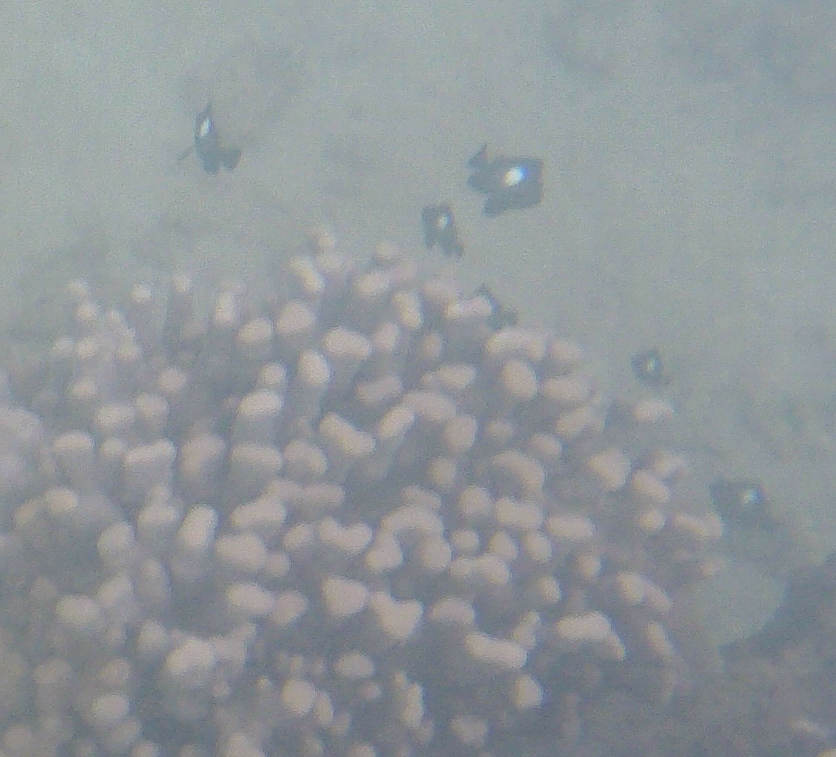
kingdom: Animalia
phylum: Chordata
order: Perciformes
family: Pomacentridae
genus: Dascyllus
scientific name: Dascyllus albisella
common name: Hawaiian dascyllus
